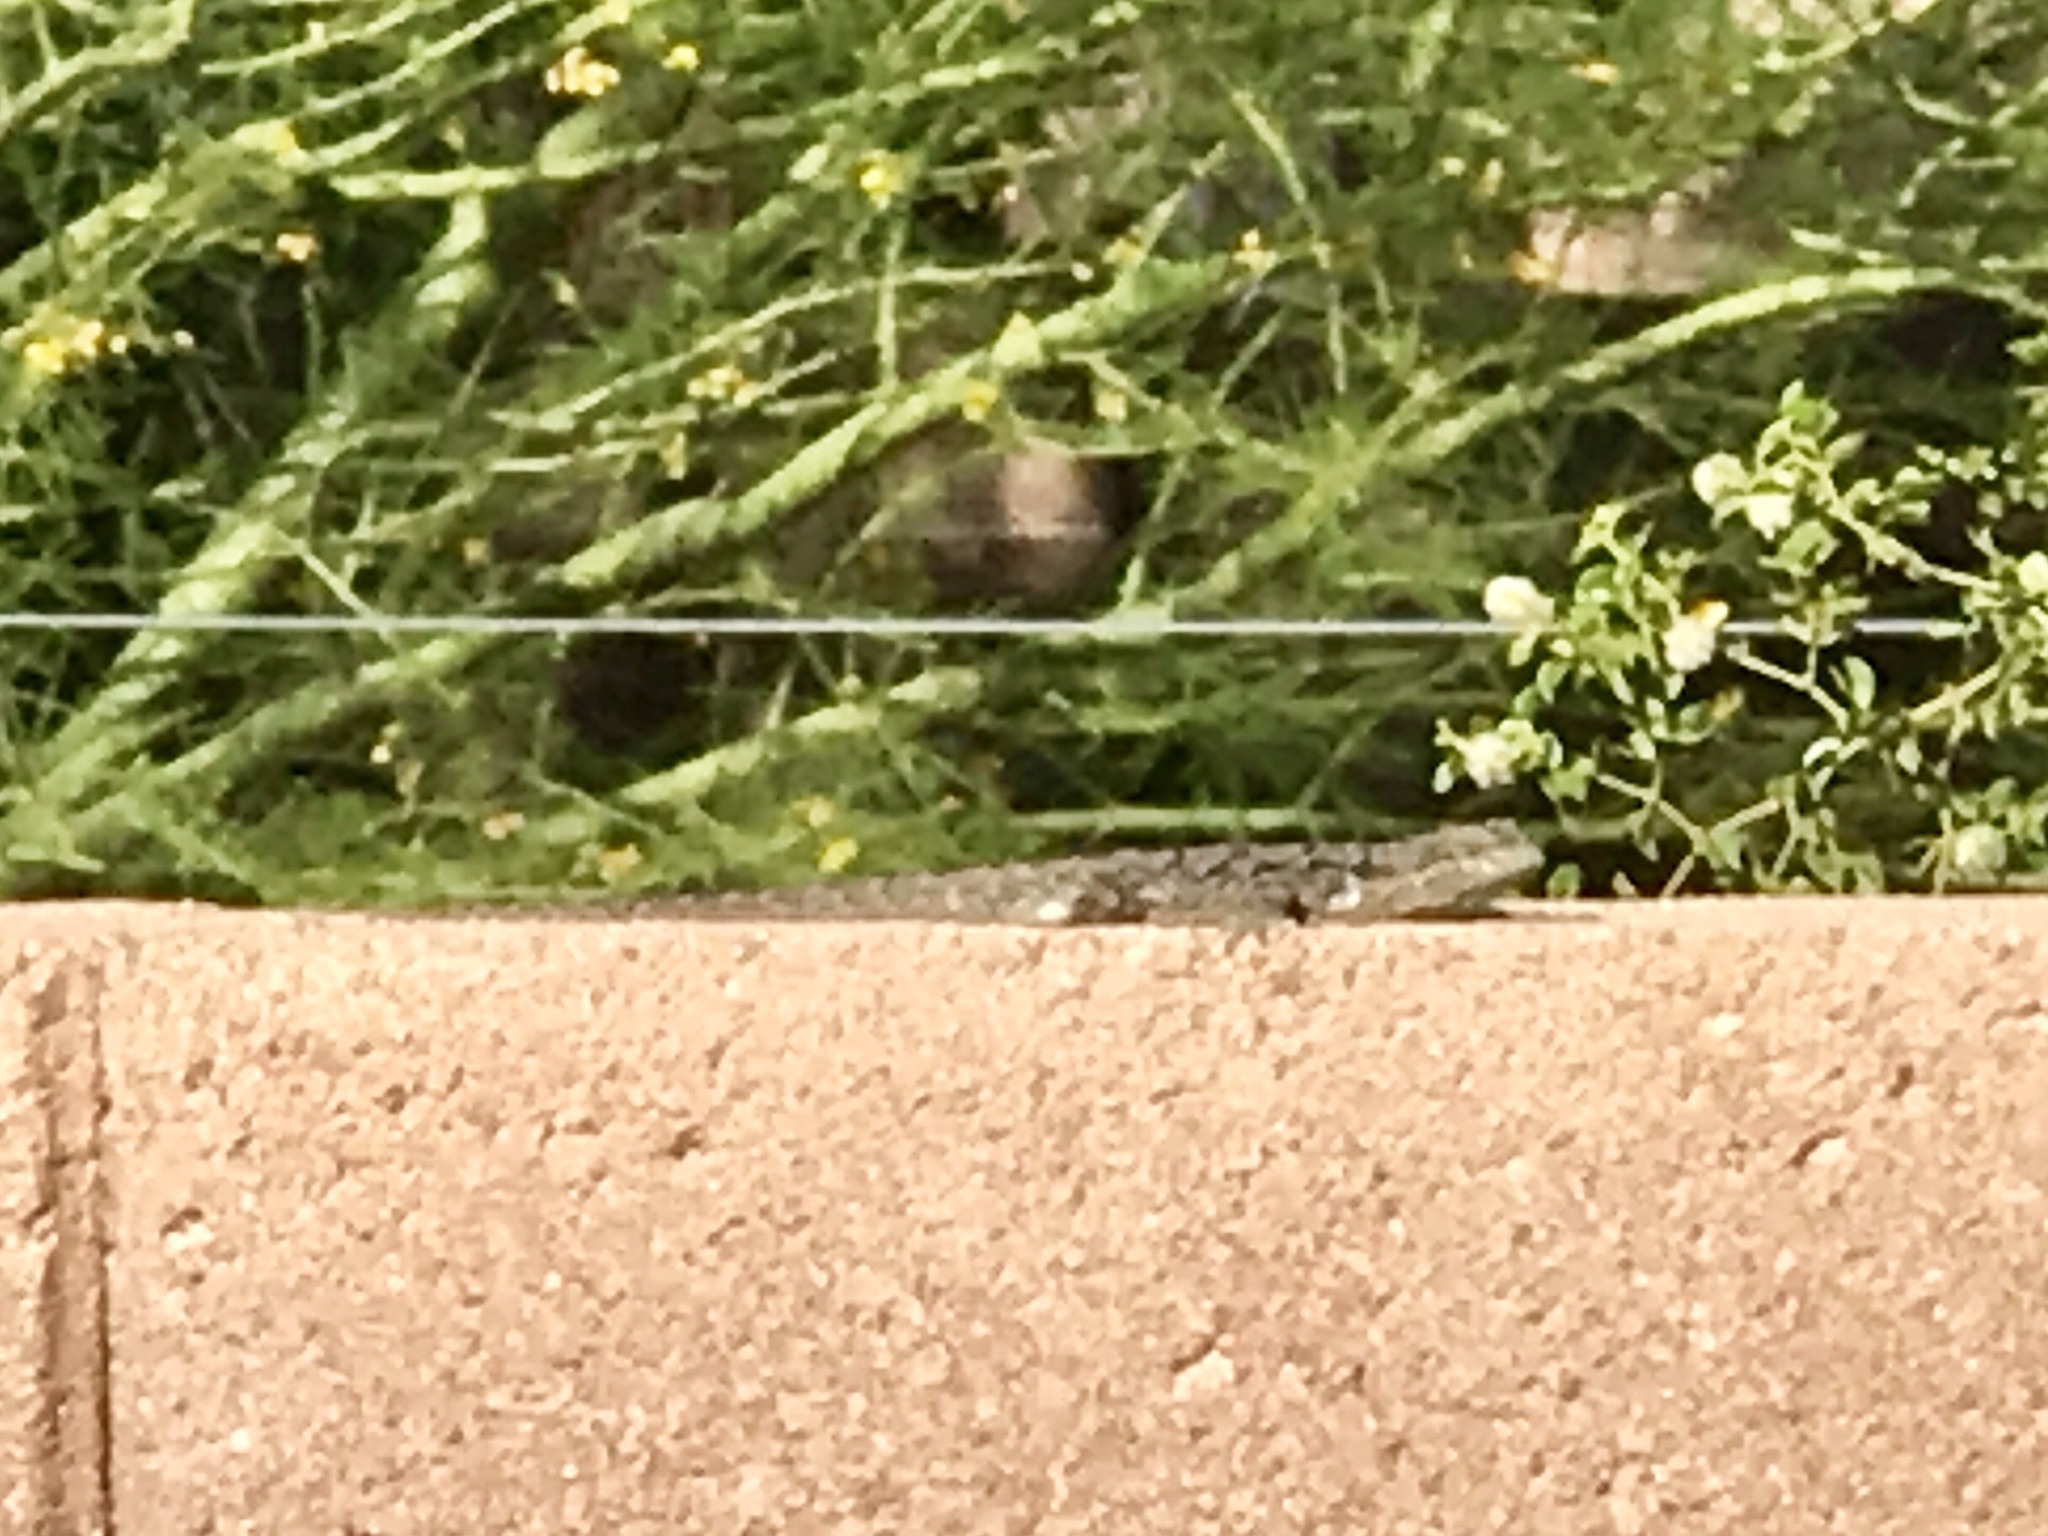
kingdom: Animalia
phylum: Chordata
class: Squamata
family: Phrynosomatidae
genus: Urosaurus
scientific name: Urosaurus ornatus
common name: Ornate tree lizard
